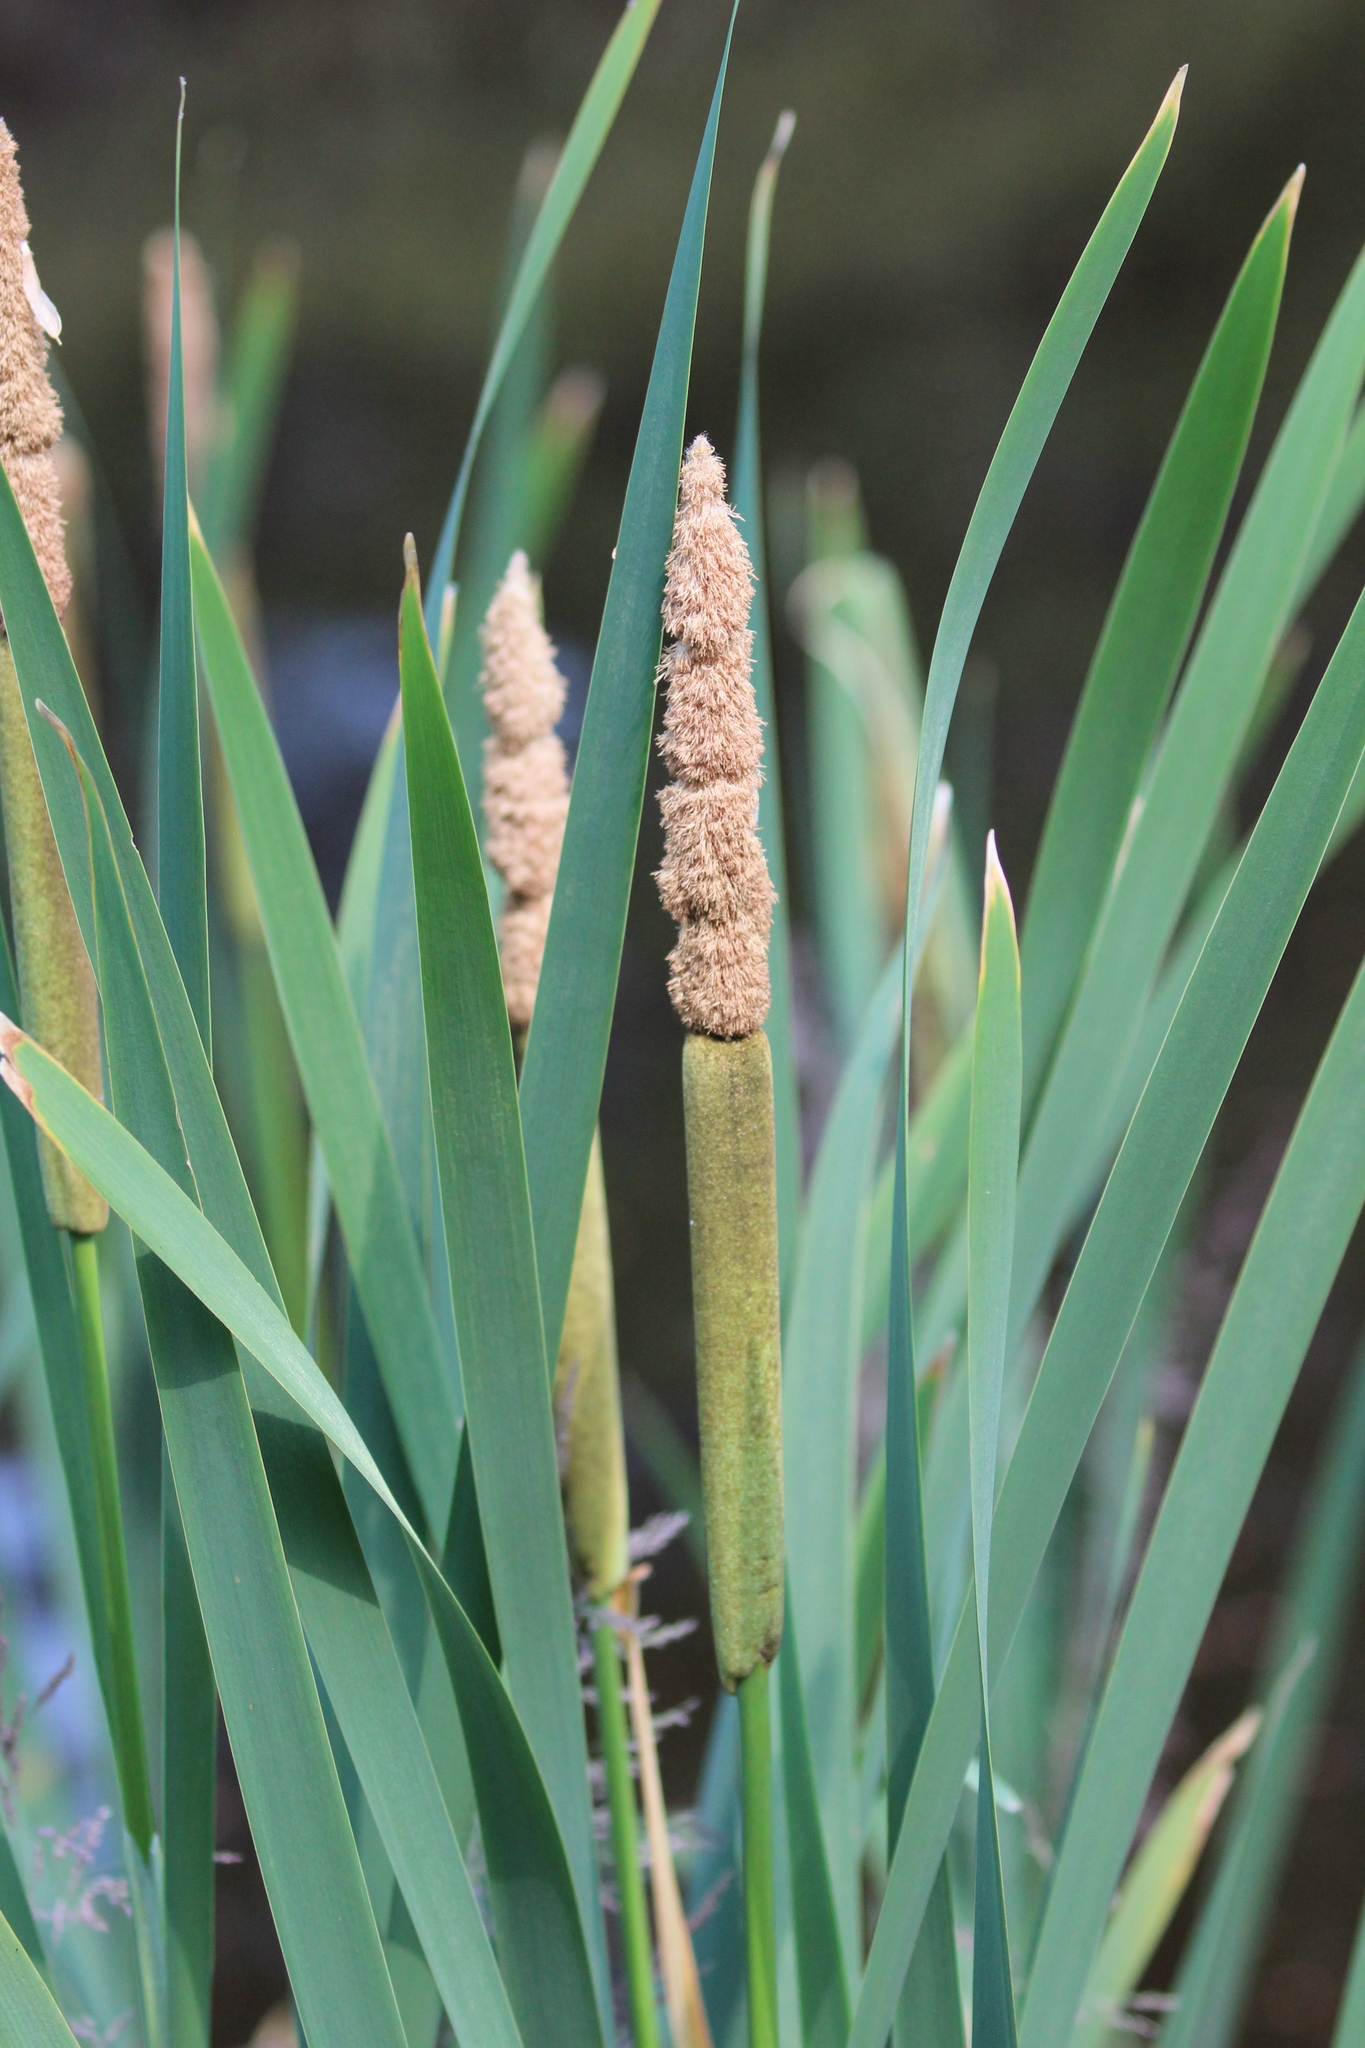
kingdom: Plantae
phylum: Tracheophyta
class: Liliopsida
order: Poales
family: Typhaceae
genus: Typha
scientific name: Typha latifolia
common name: Broadleaf cattail
